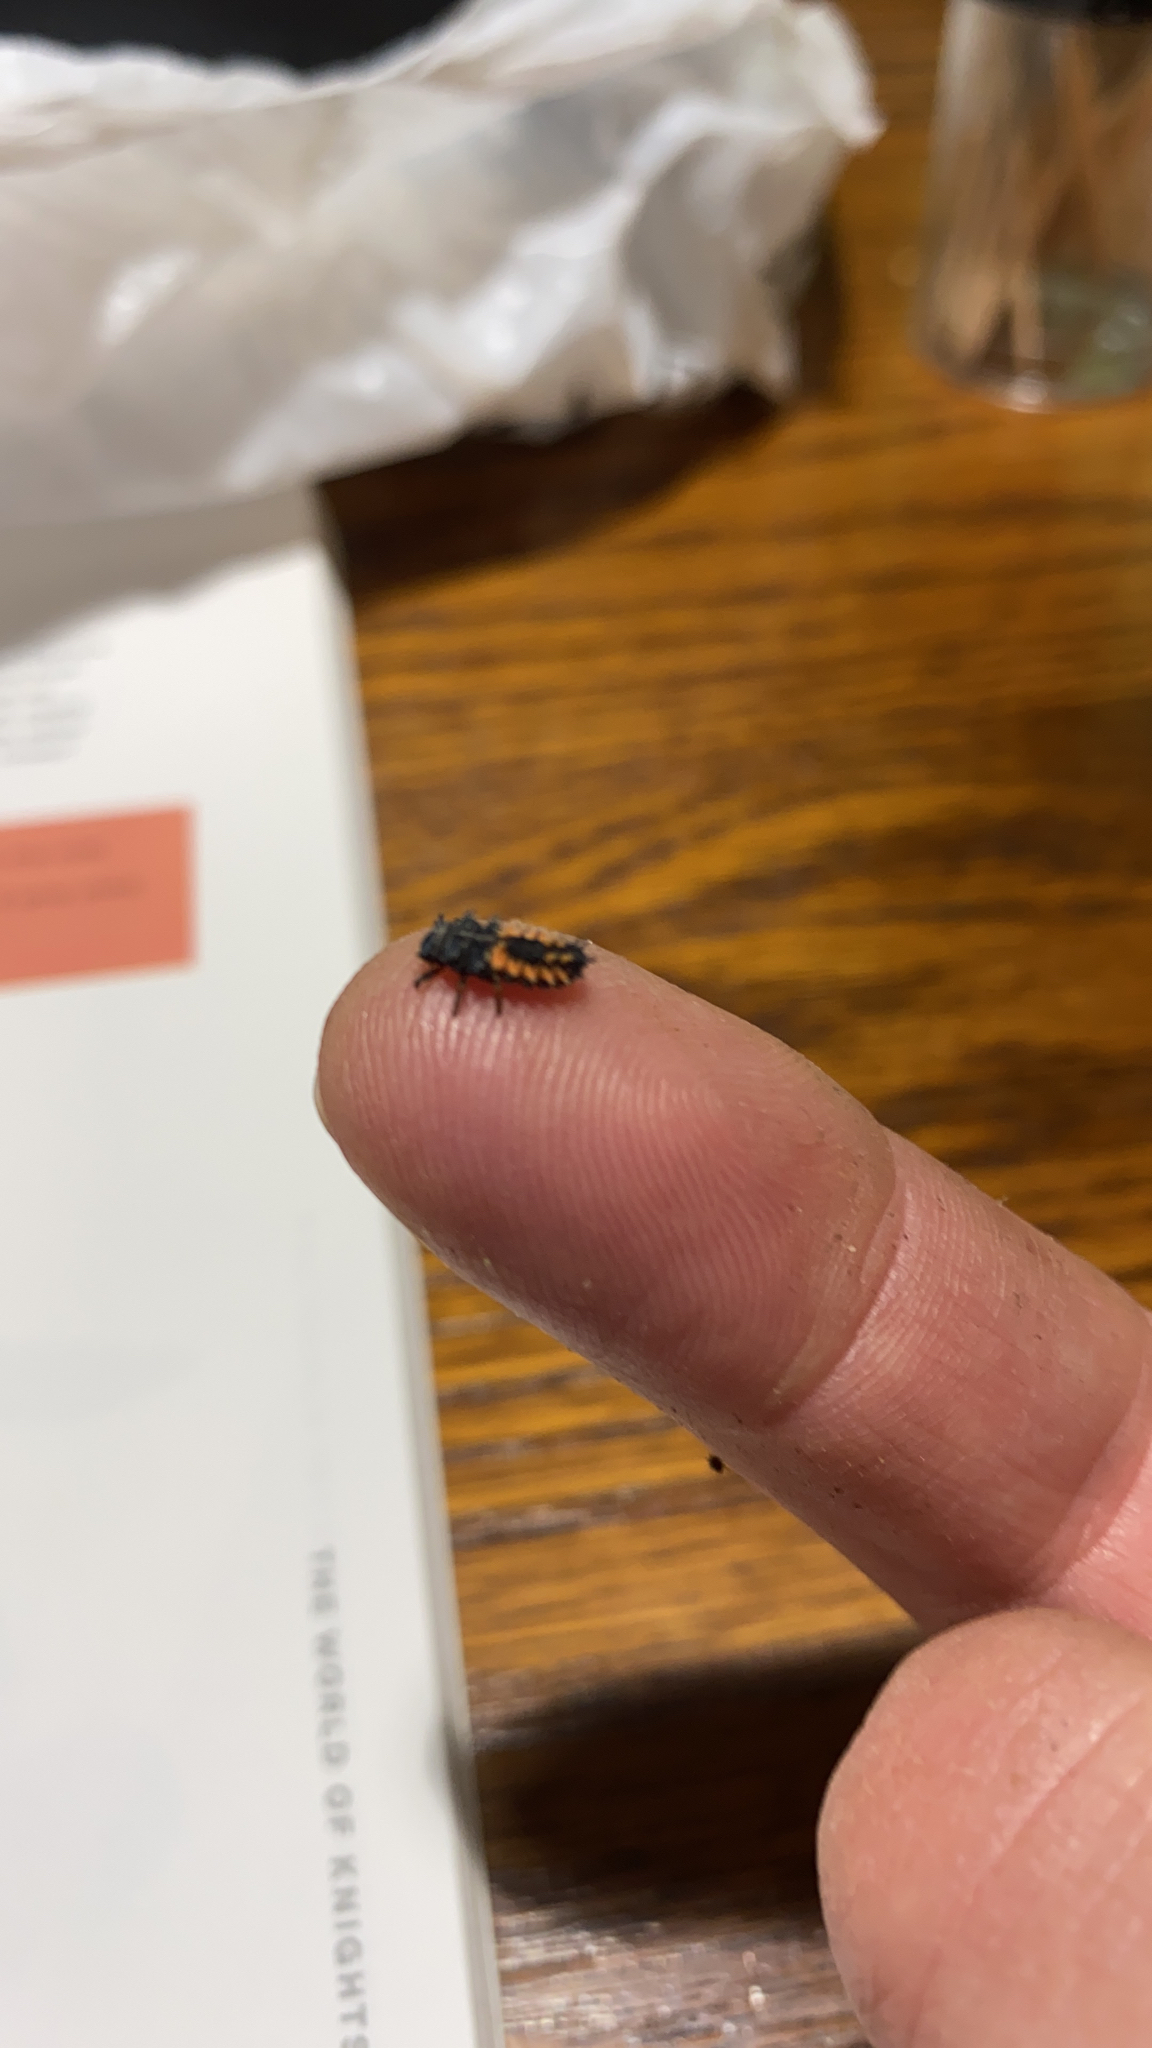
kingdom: Animalia
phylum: Arthropoda
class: Insecta
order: Coleoptera
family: Coccinellidae
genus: Harmonia
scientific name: Harmonia axyridis
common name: Harlequin ladybird
